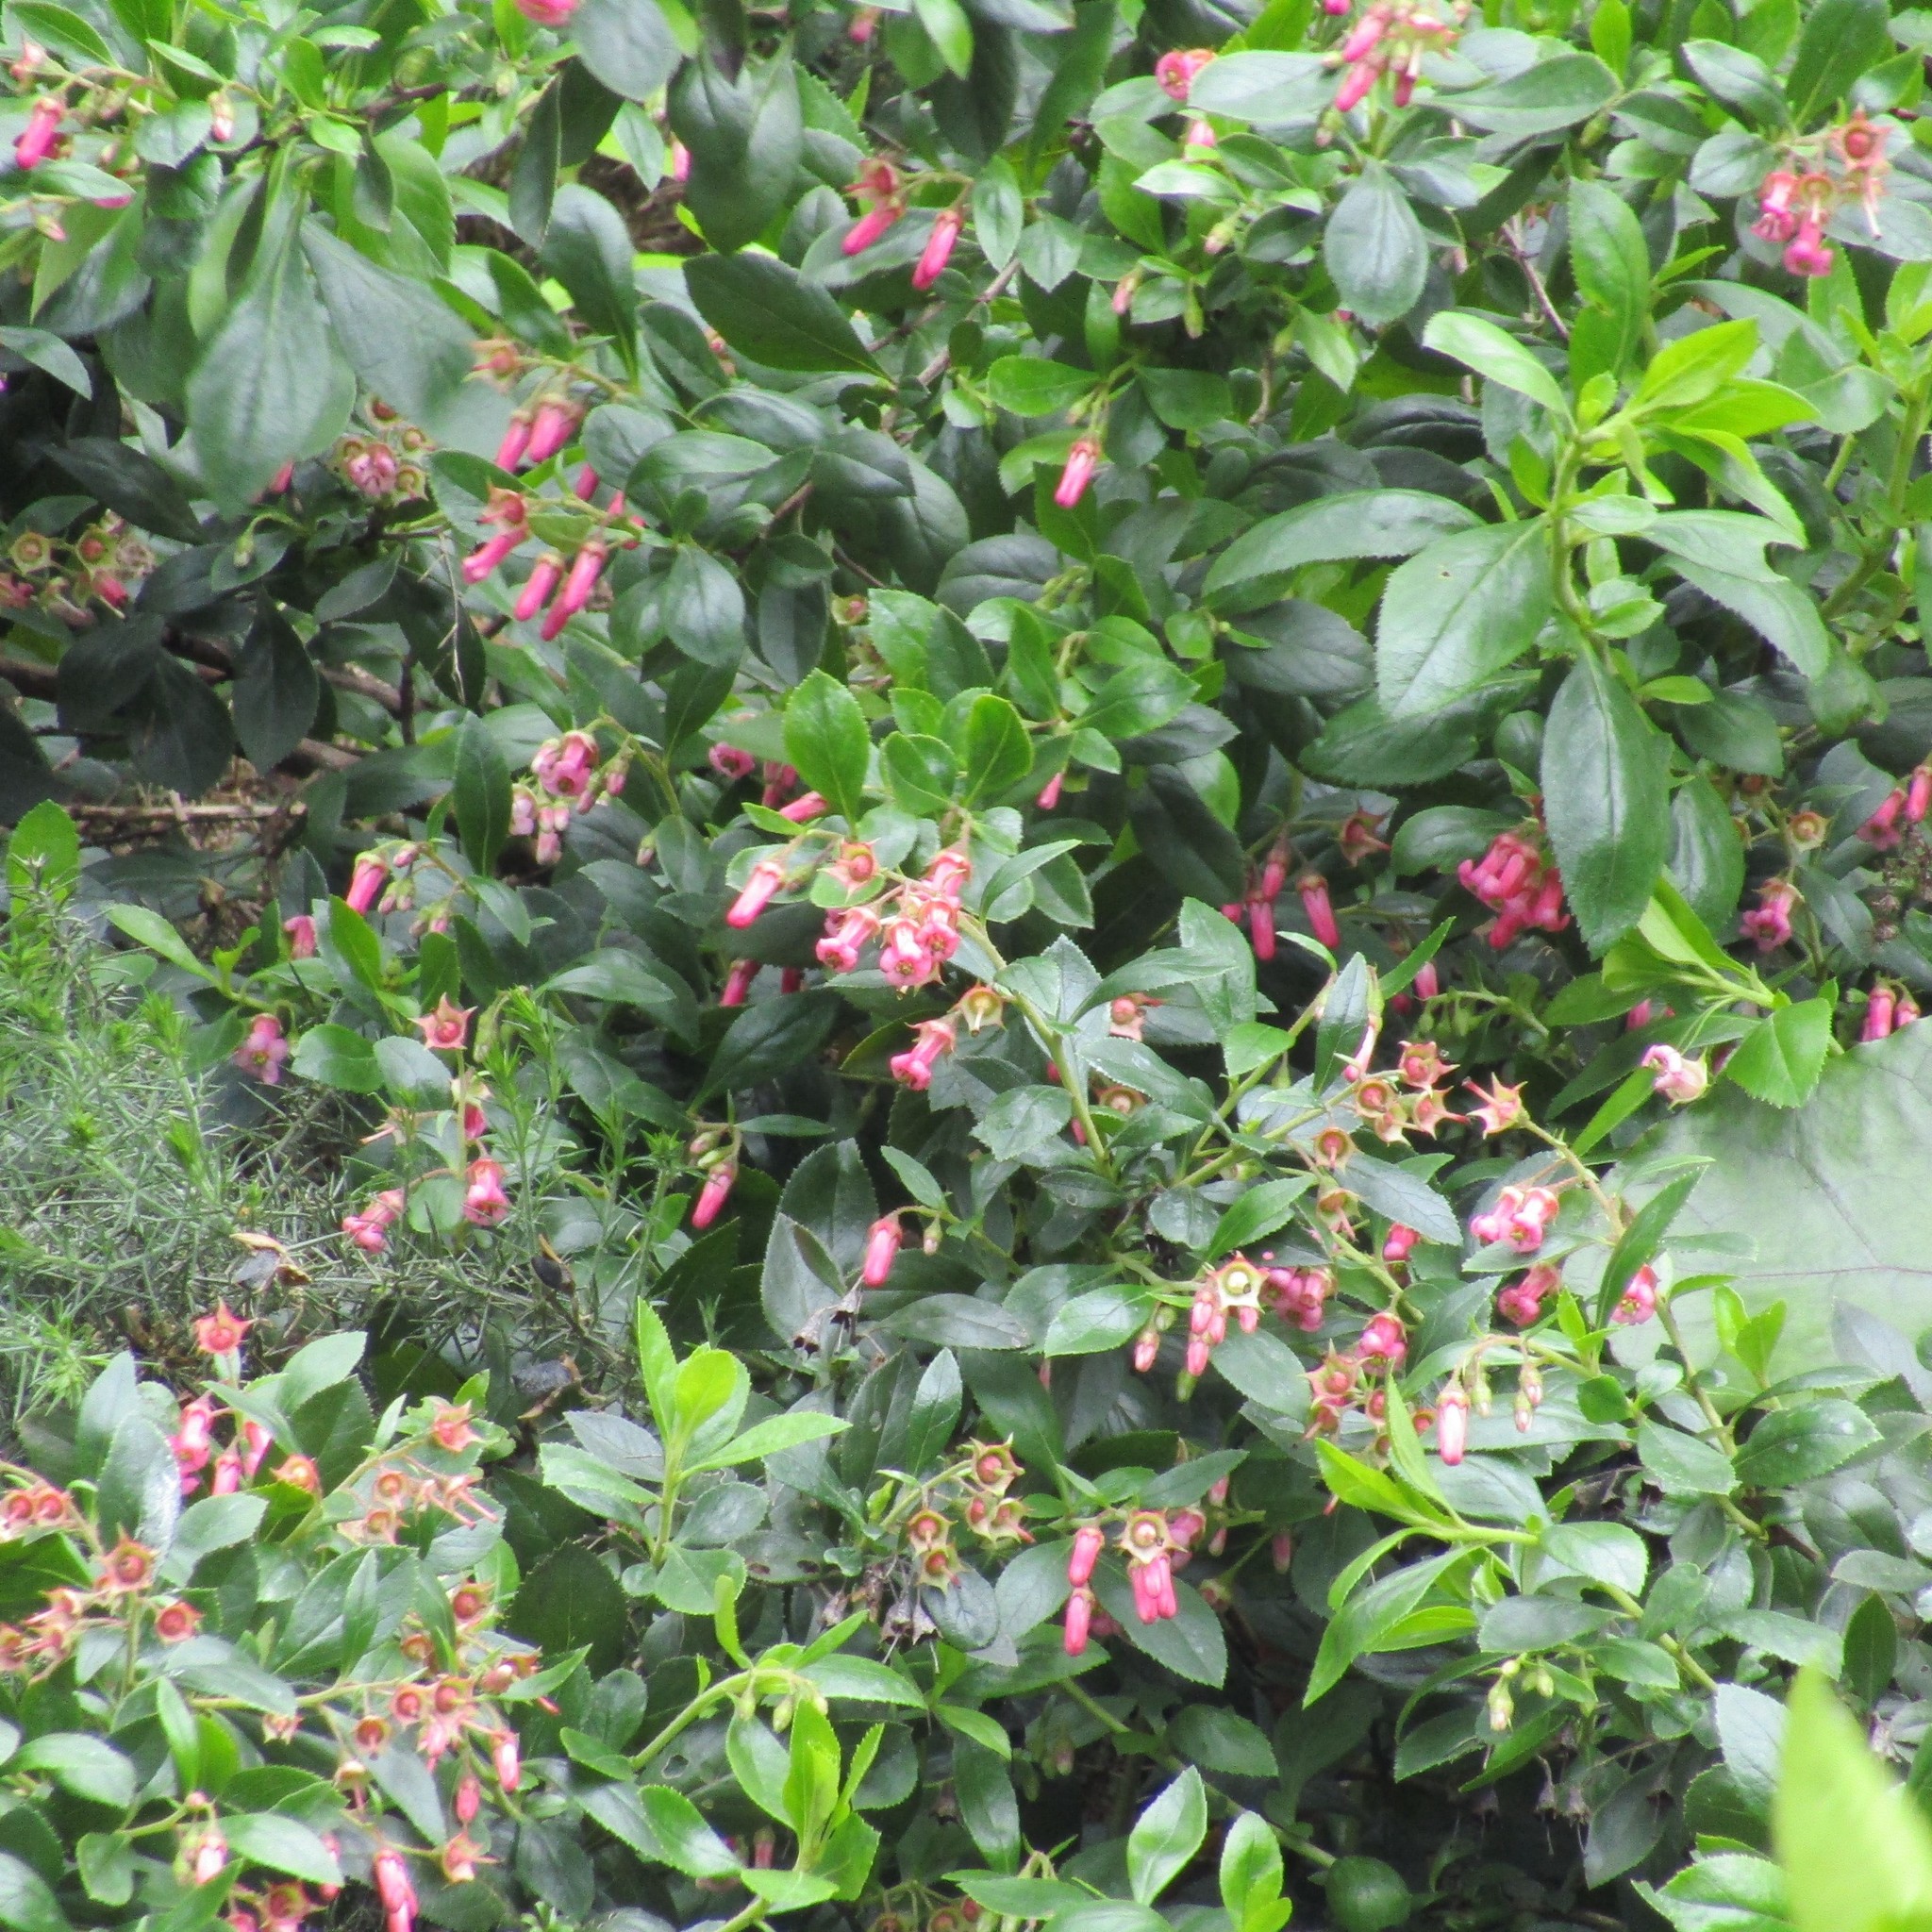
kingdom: Plantae
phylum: Tracheophyta
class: Magnoliopsida
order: Escalloniales
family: Escalloniaceae
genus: Escallonia
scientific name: Escallonia rubra
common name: Redclaws
